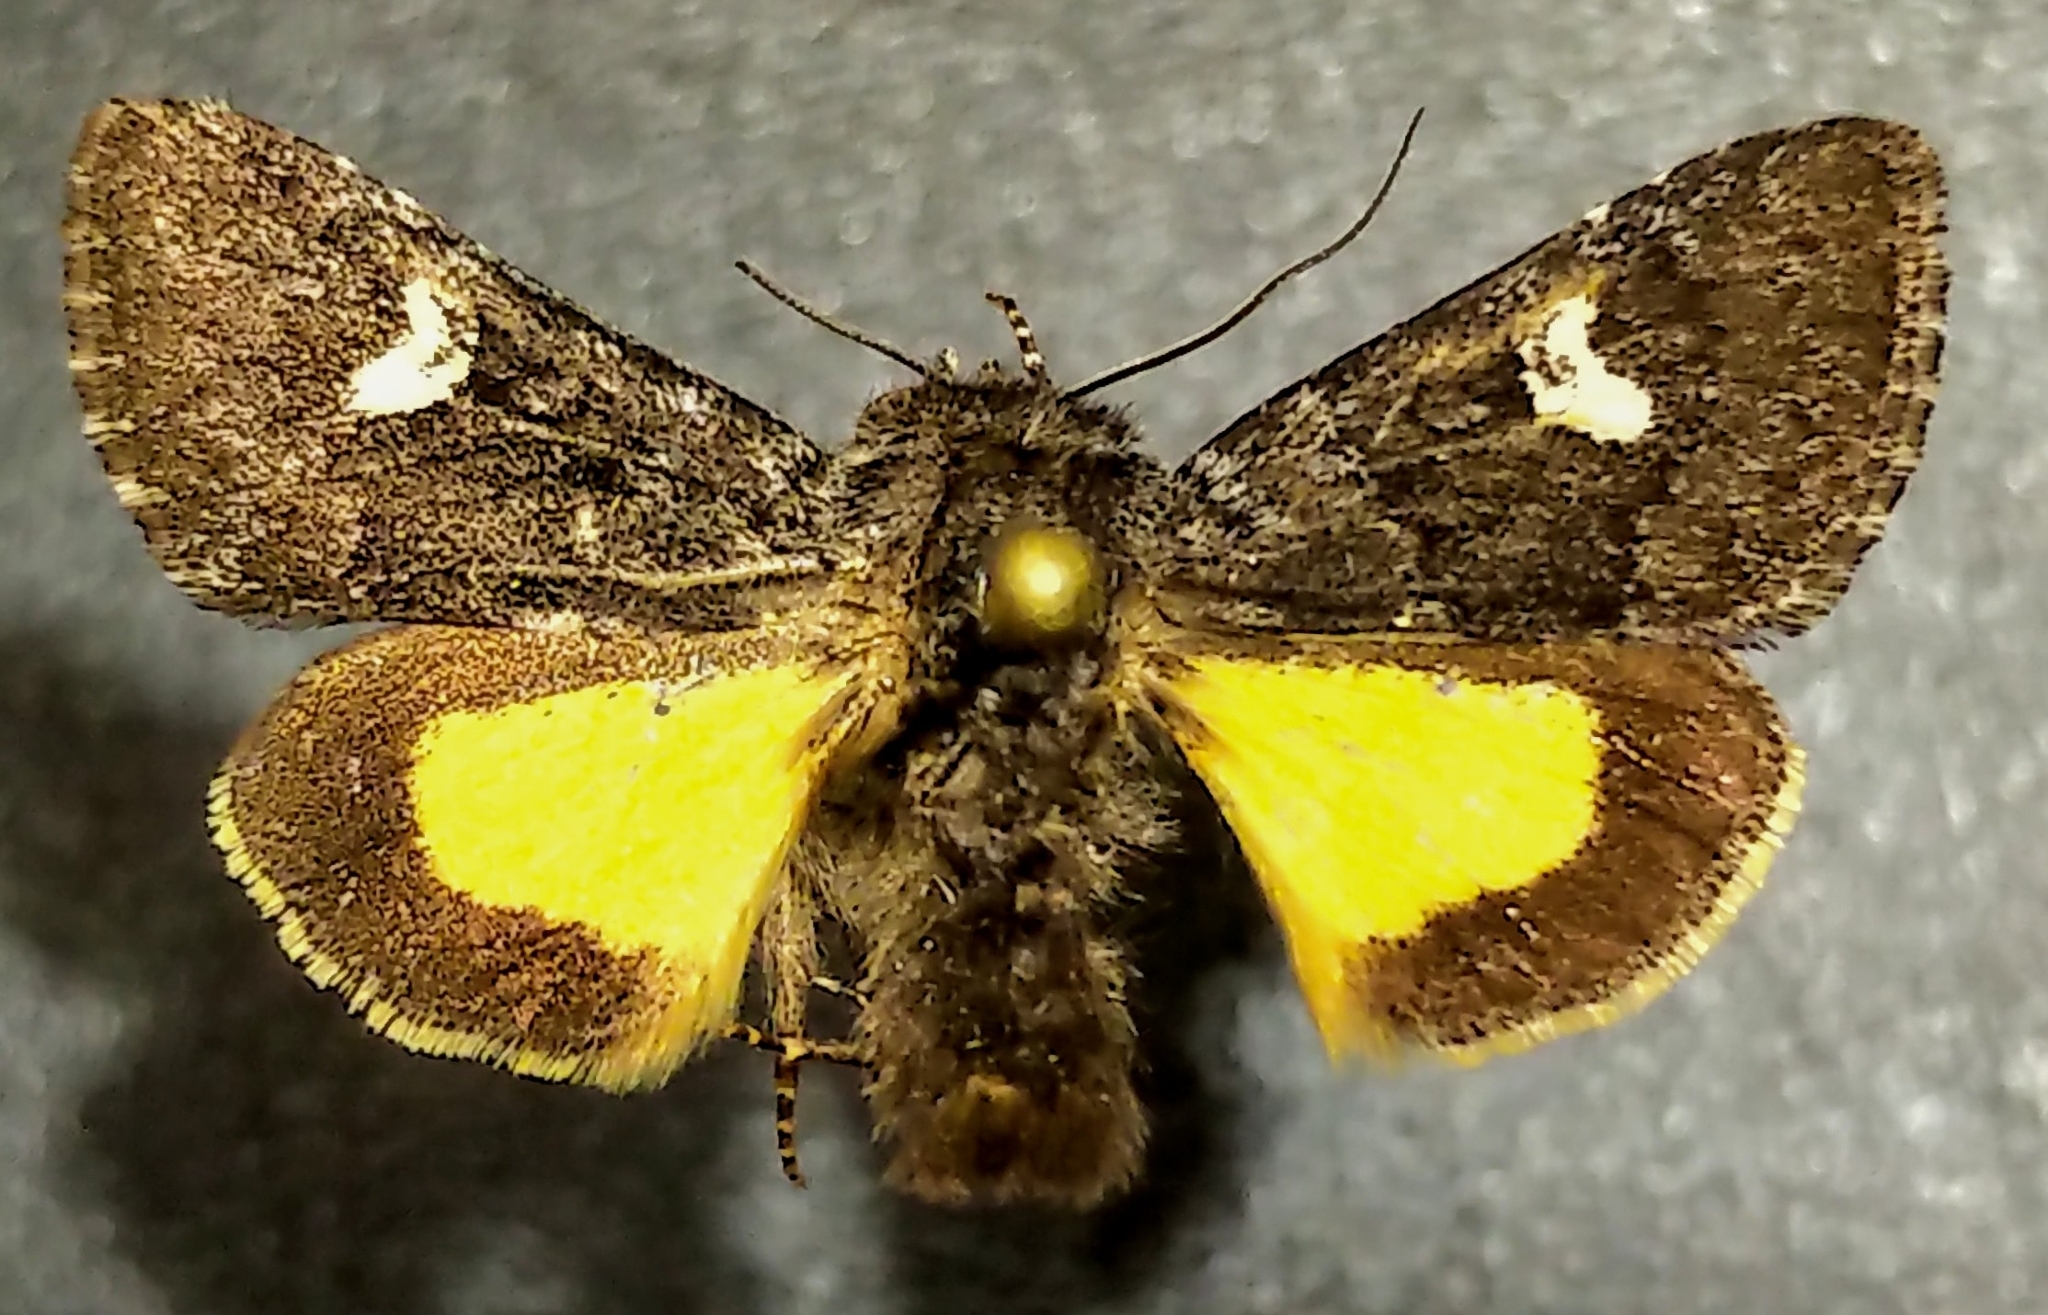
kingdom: Animalia
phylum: Arthropoda
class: Insecta
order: Lepidoptera
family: Noctuidae
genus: Coranarta
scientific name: Coranarta luteola
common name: Small dark yellow underwing
